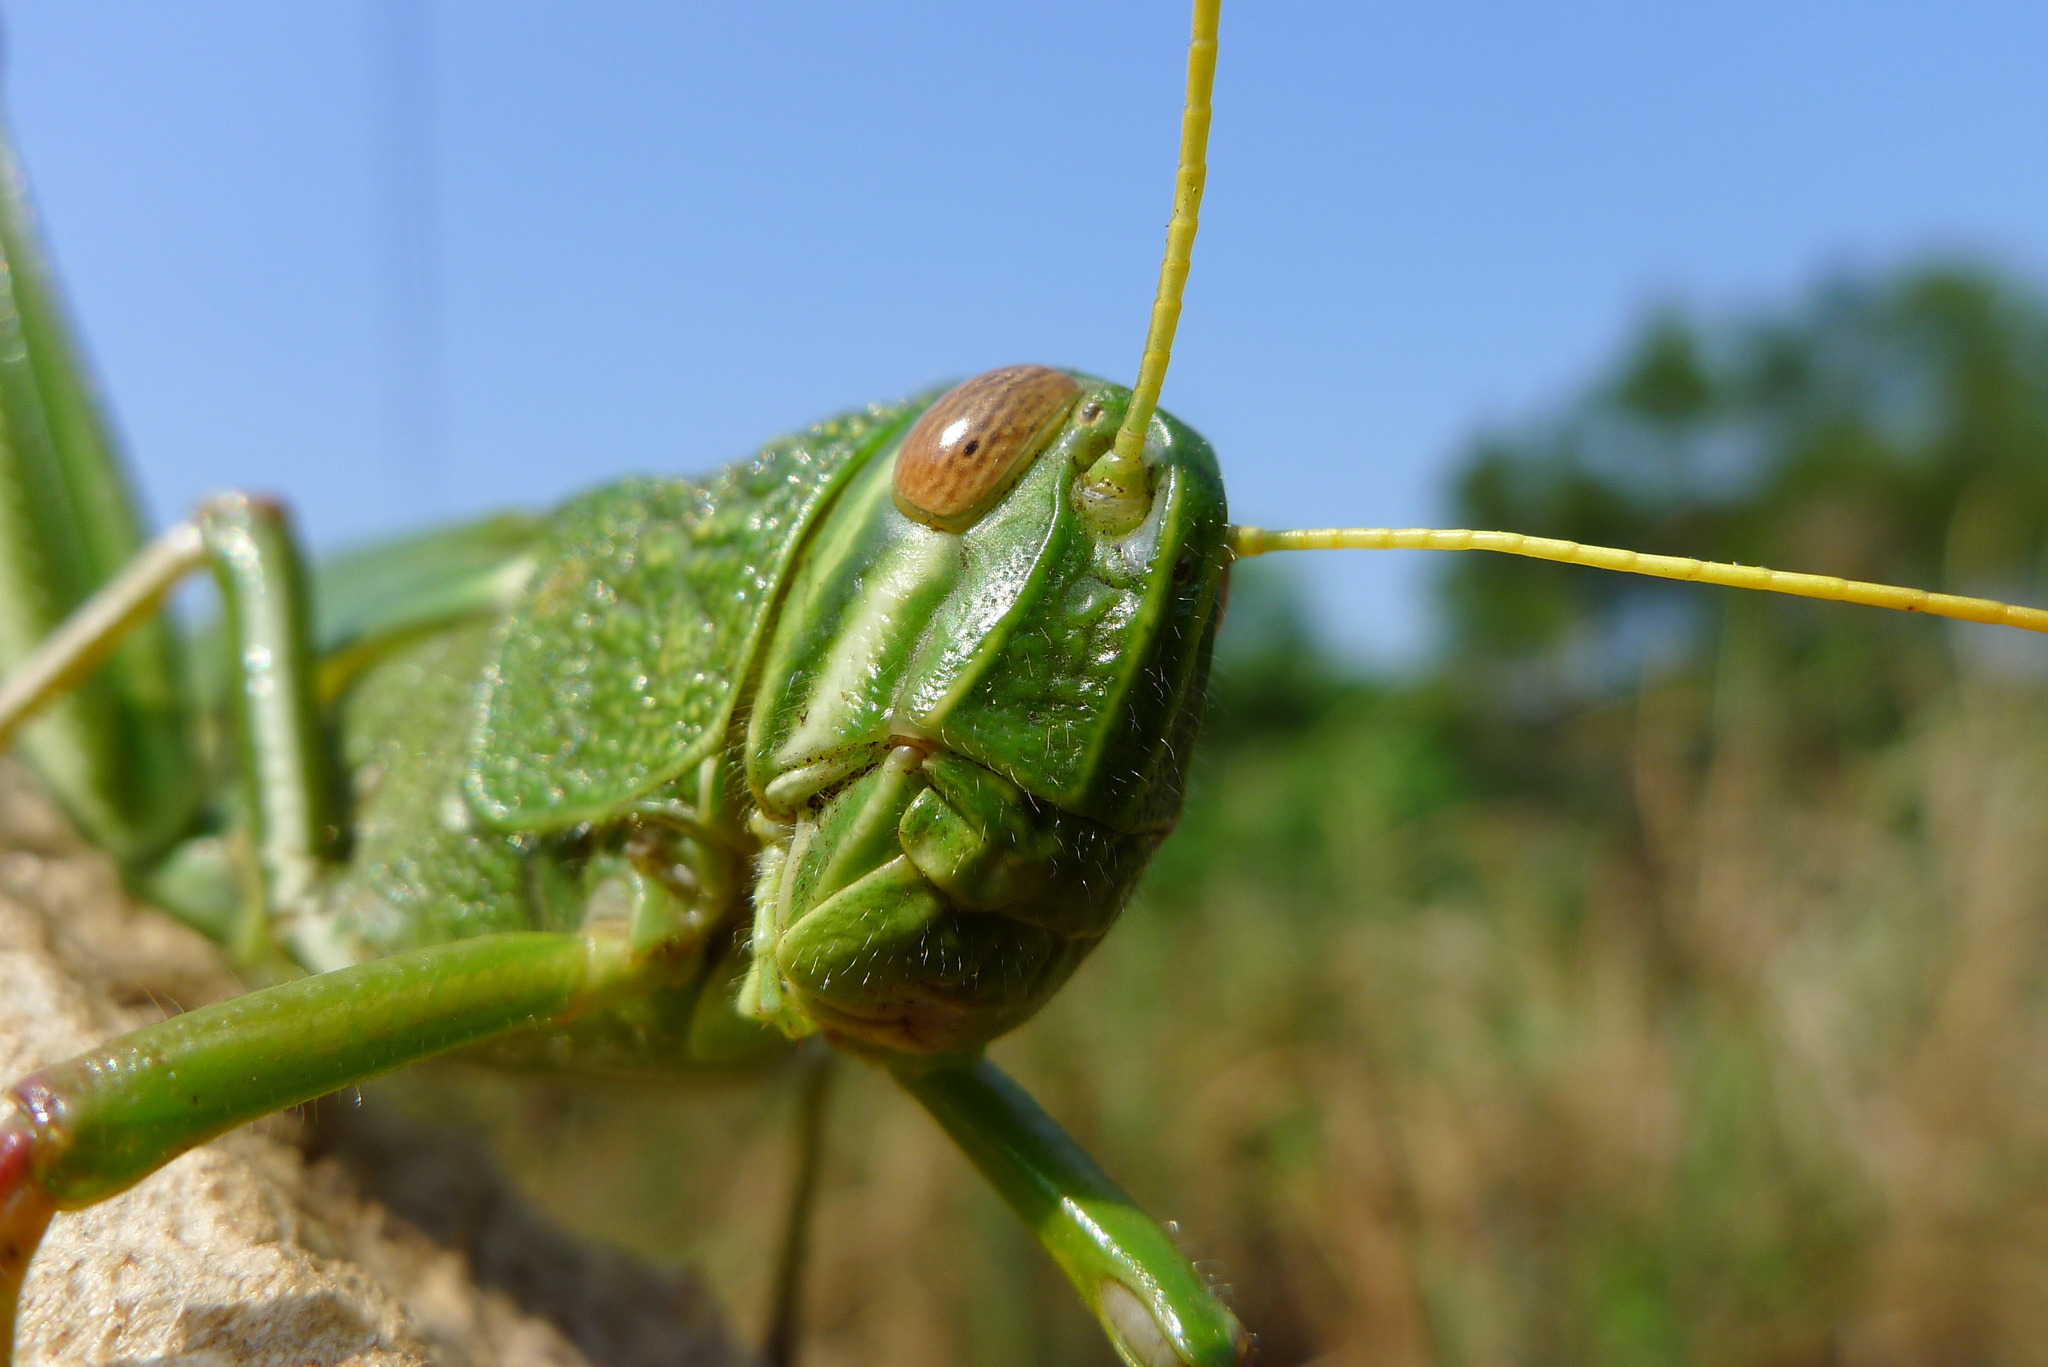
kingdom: Animalia
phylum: Arthropoda
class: Insecta
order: Orthoptera
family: Acrididae
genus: Chondracris
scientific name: Chondracris rosea
